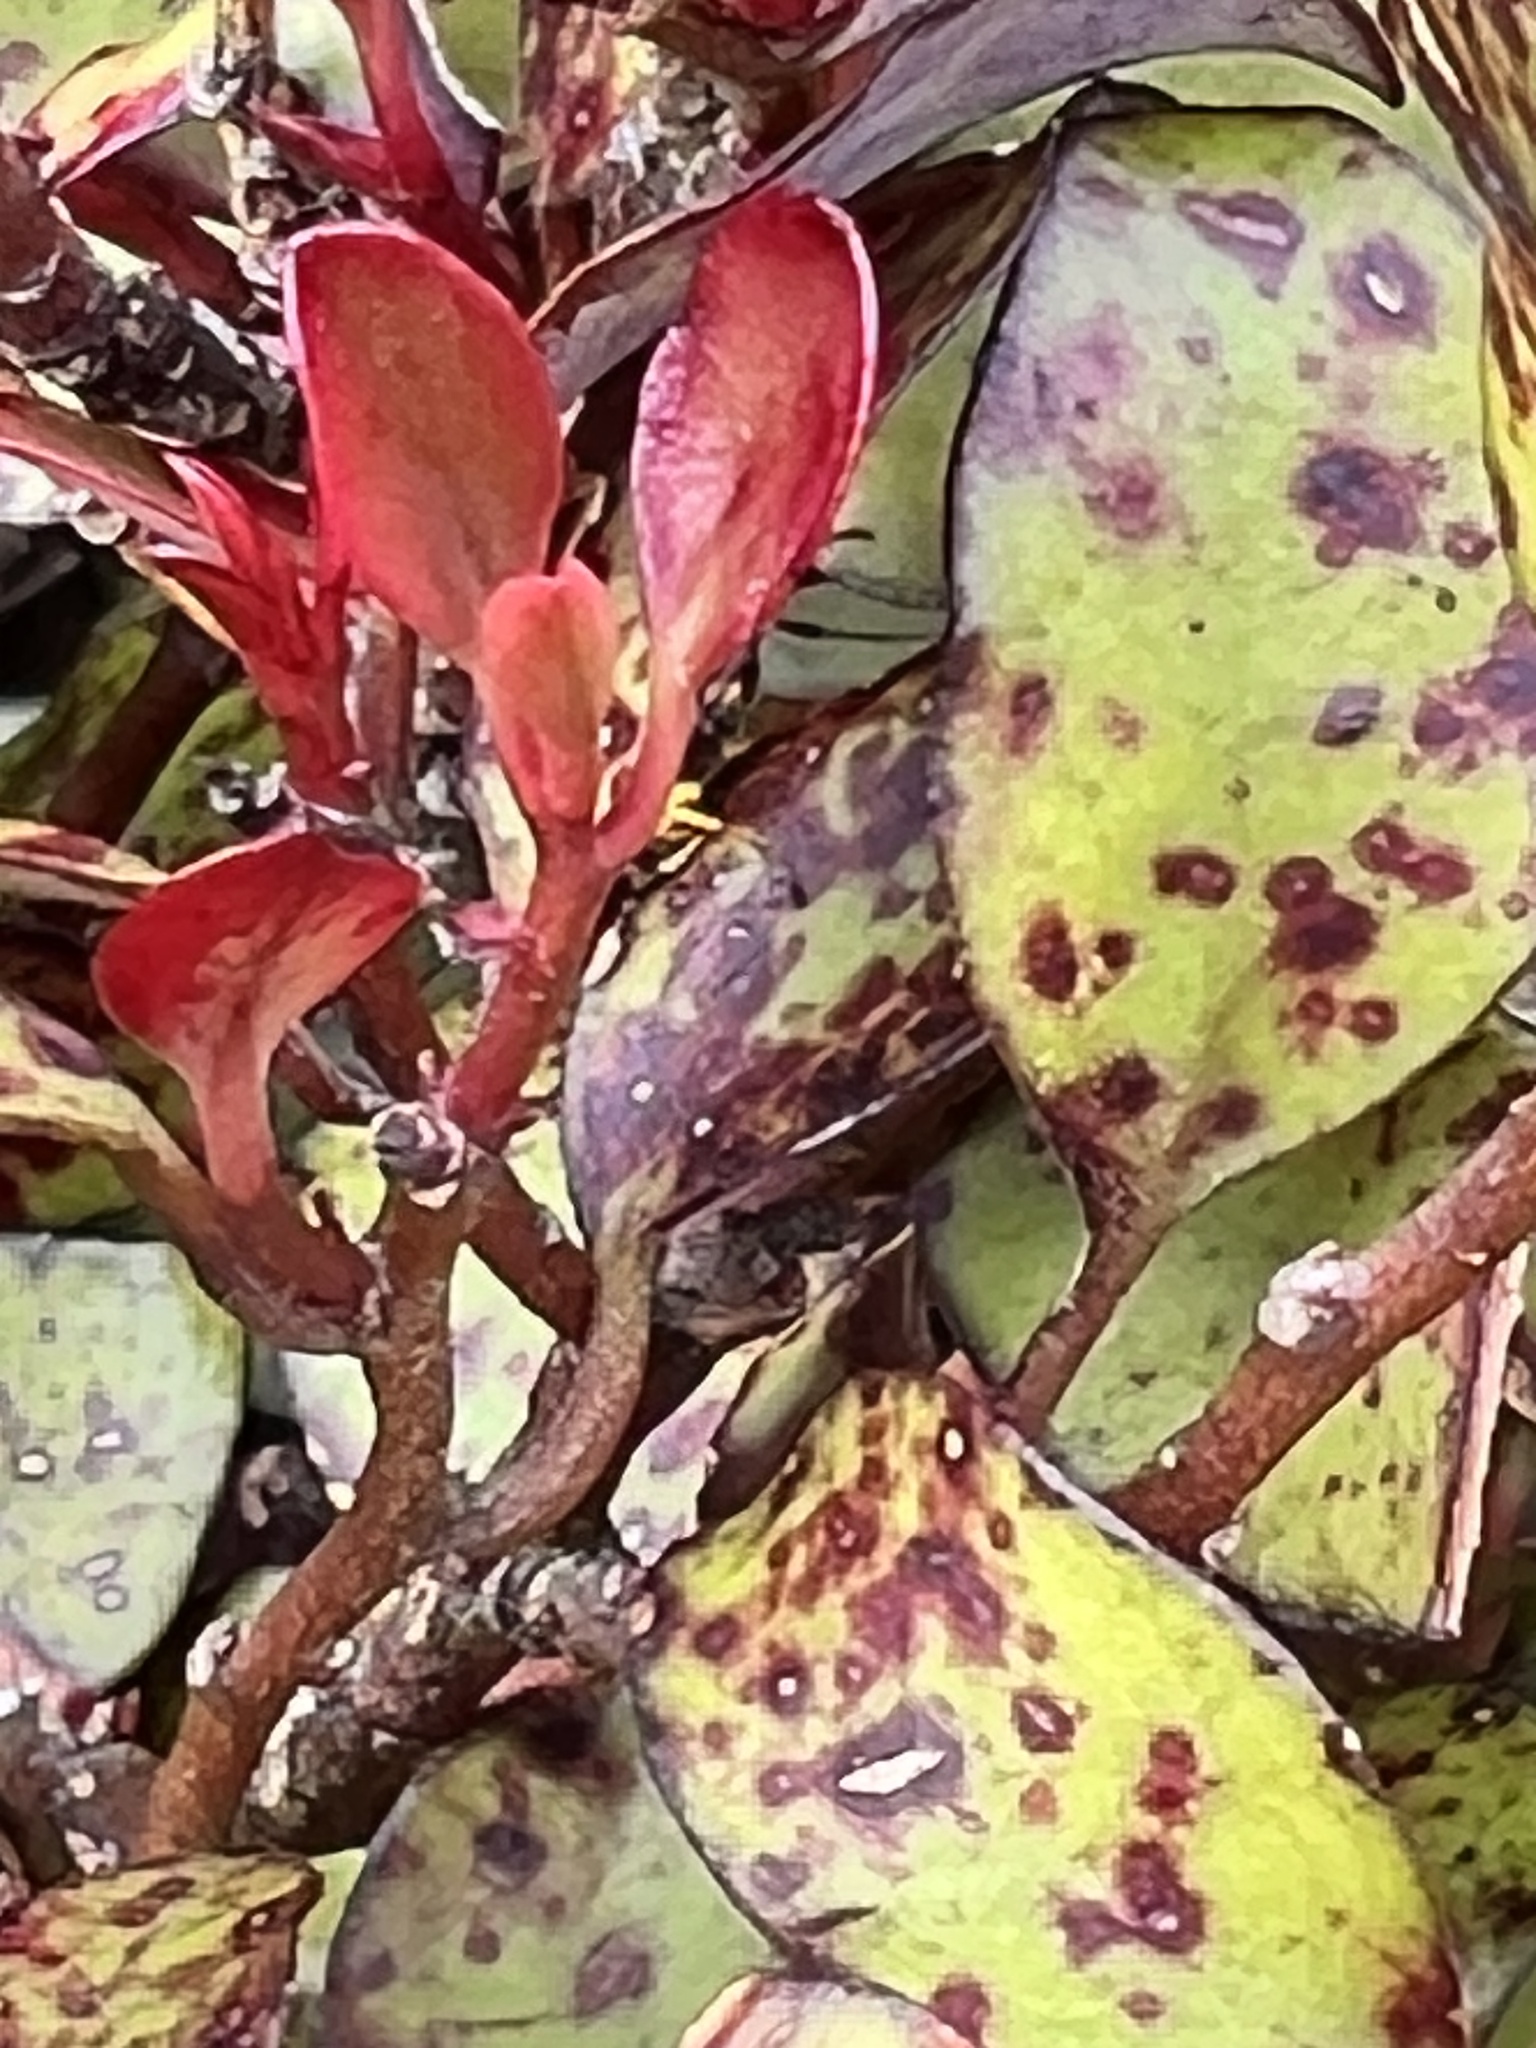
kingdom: Plantae
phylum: Tracheophyta
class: Magnoliopsida
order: Canellales
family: Winteraceae
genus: Pseudowintera
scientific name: Pseudowintera colorata
